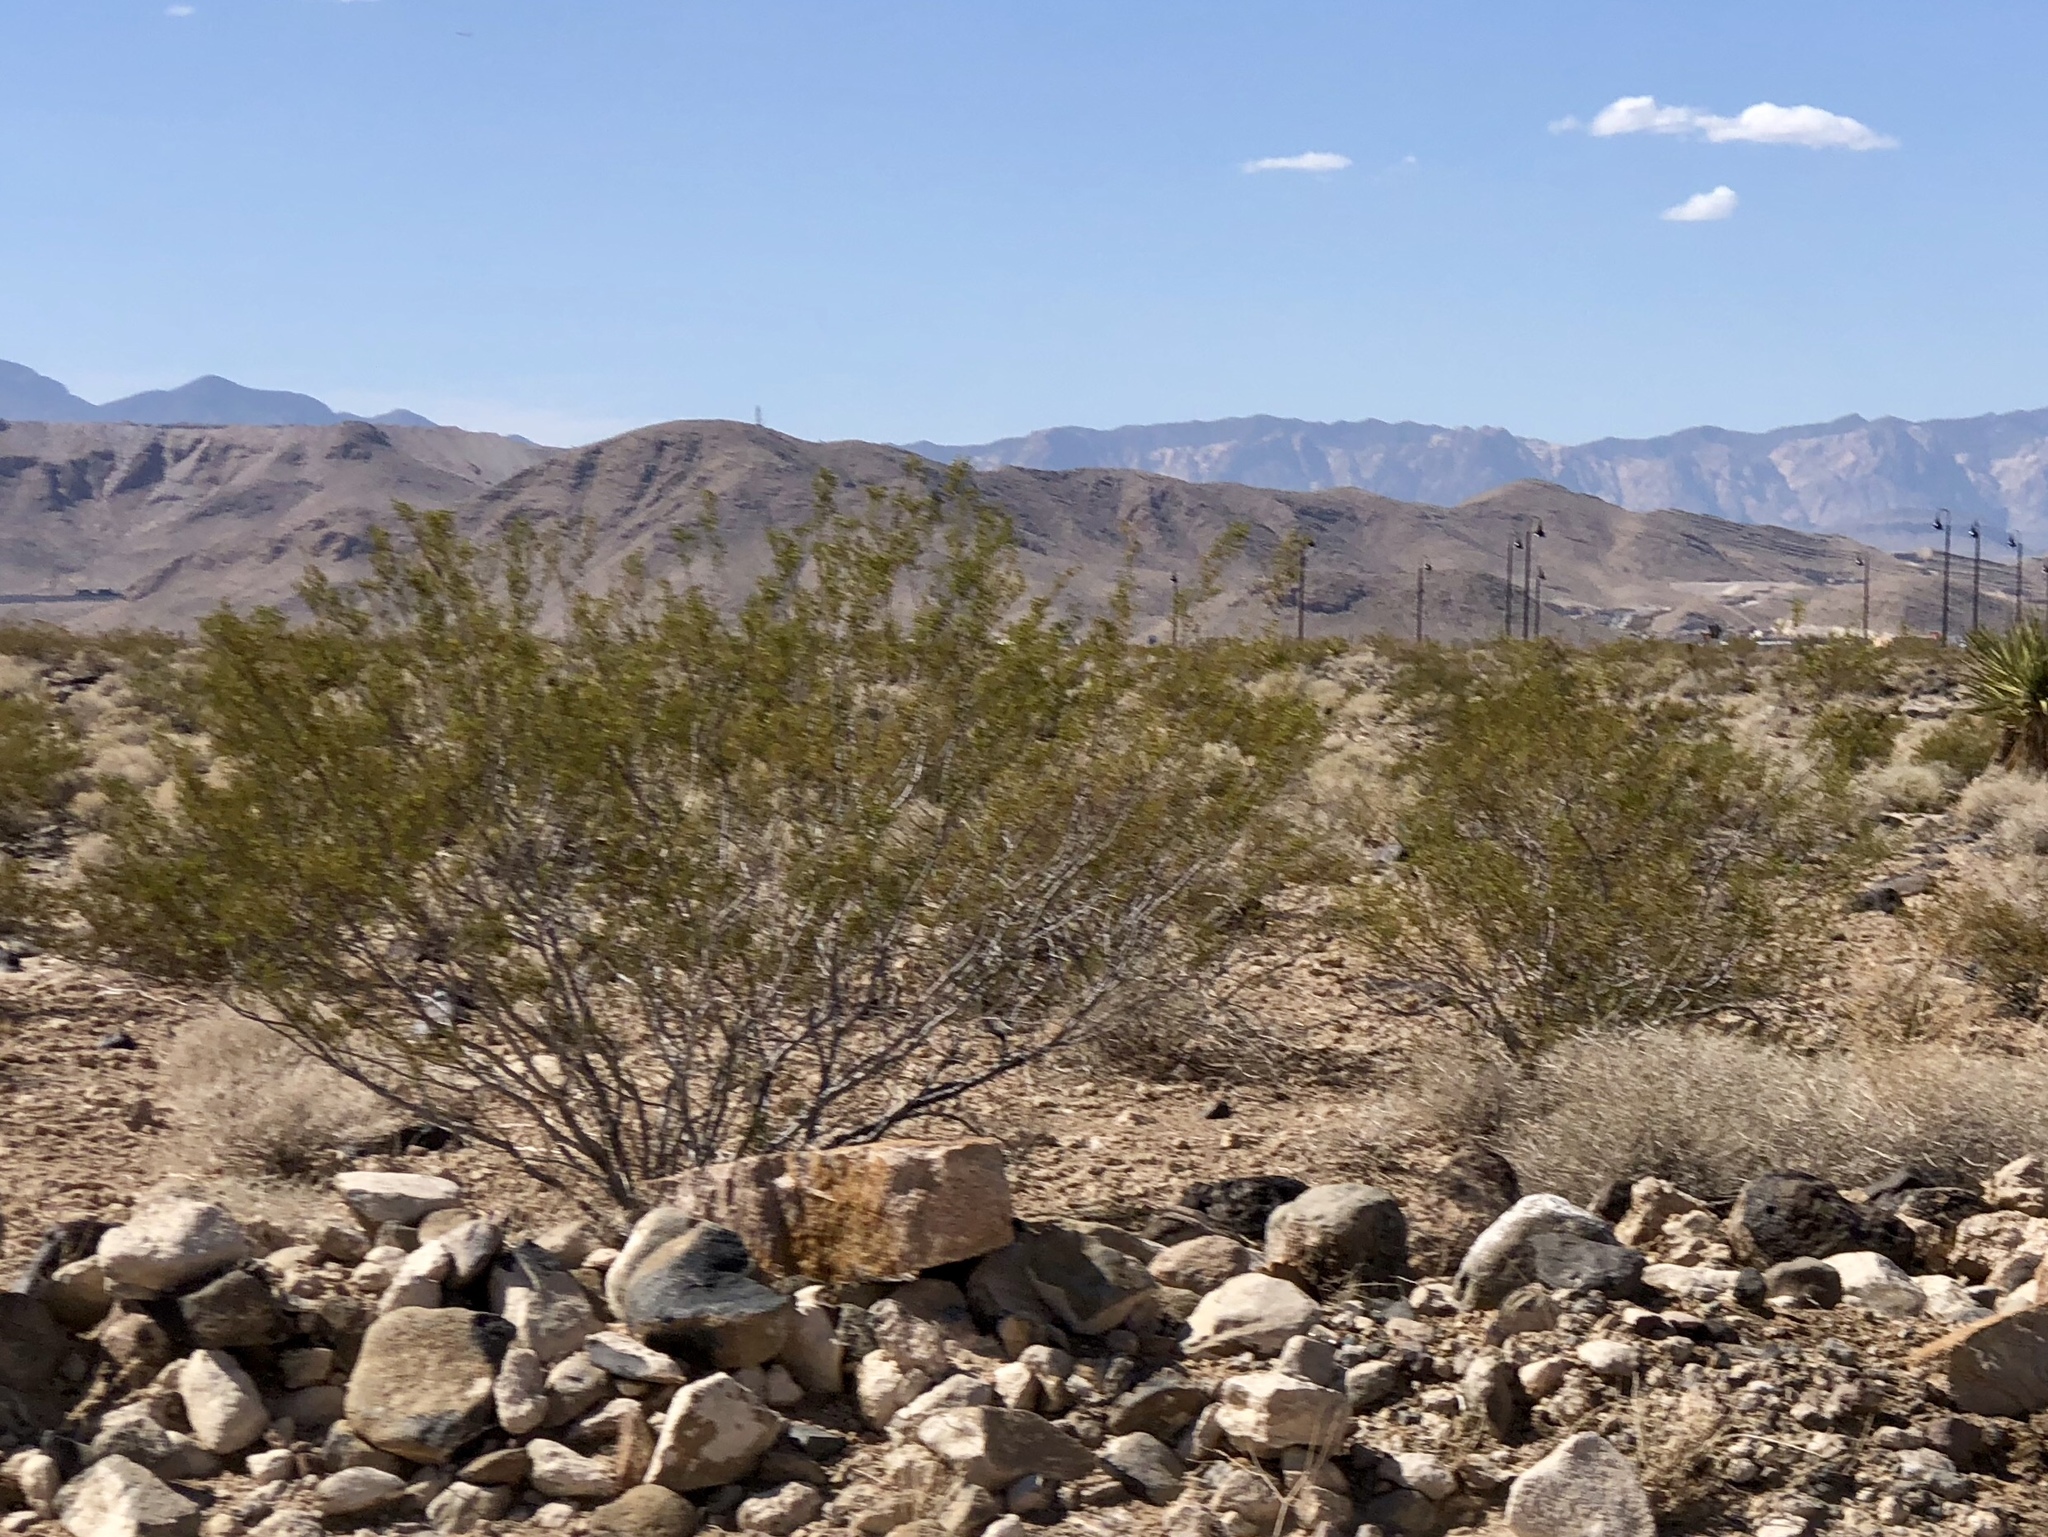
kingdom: Plantae
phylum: Tracheophyta
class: Magnoliopsida
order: Zygophyllales
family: Zygophyllaceae
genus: Larrea
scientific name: Larrea tridentata
